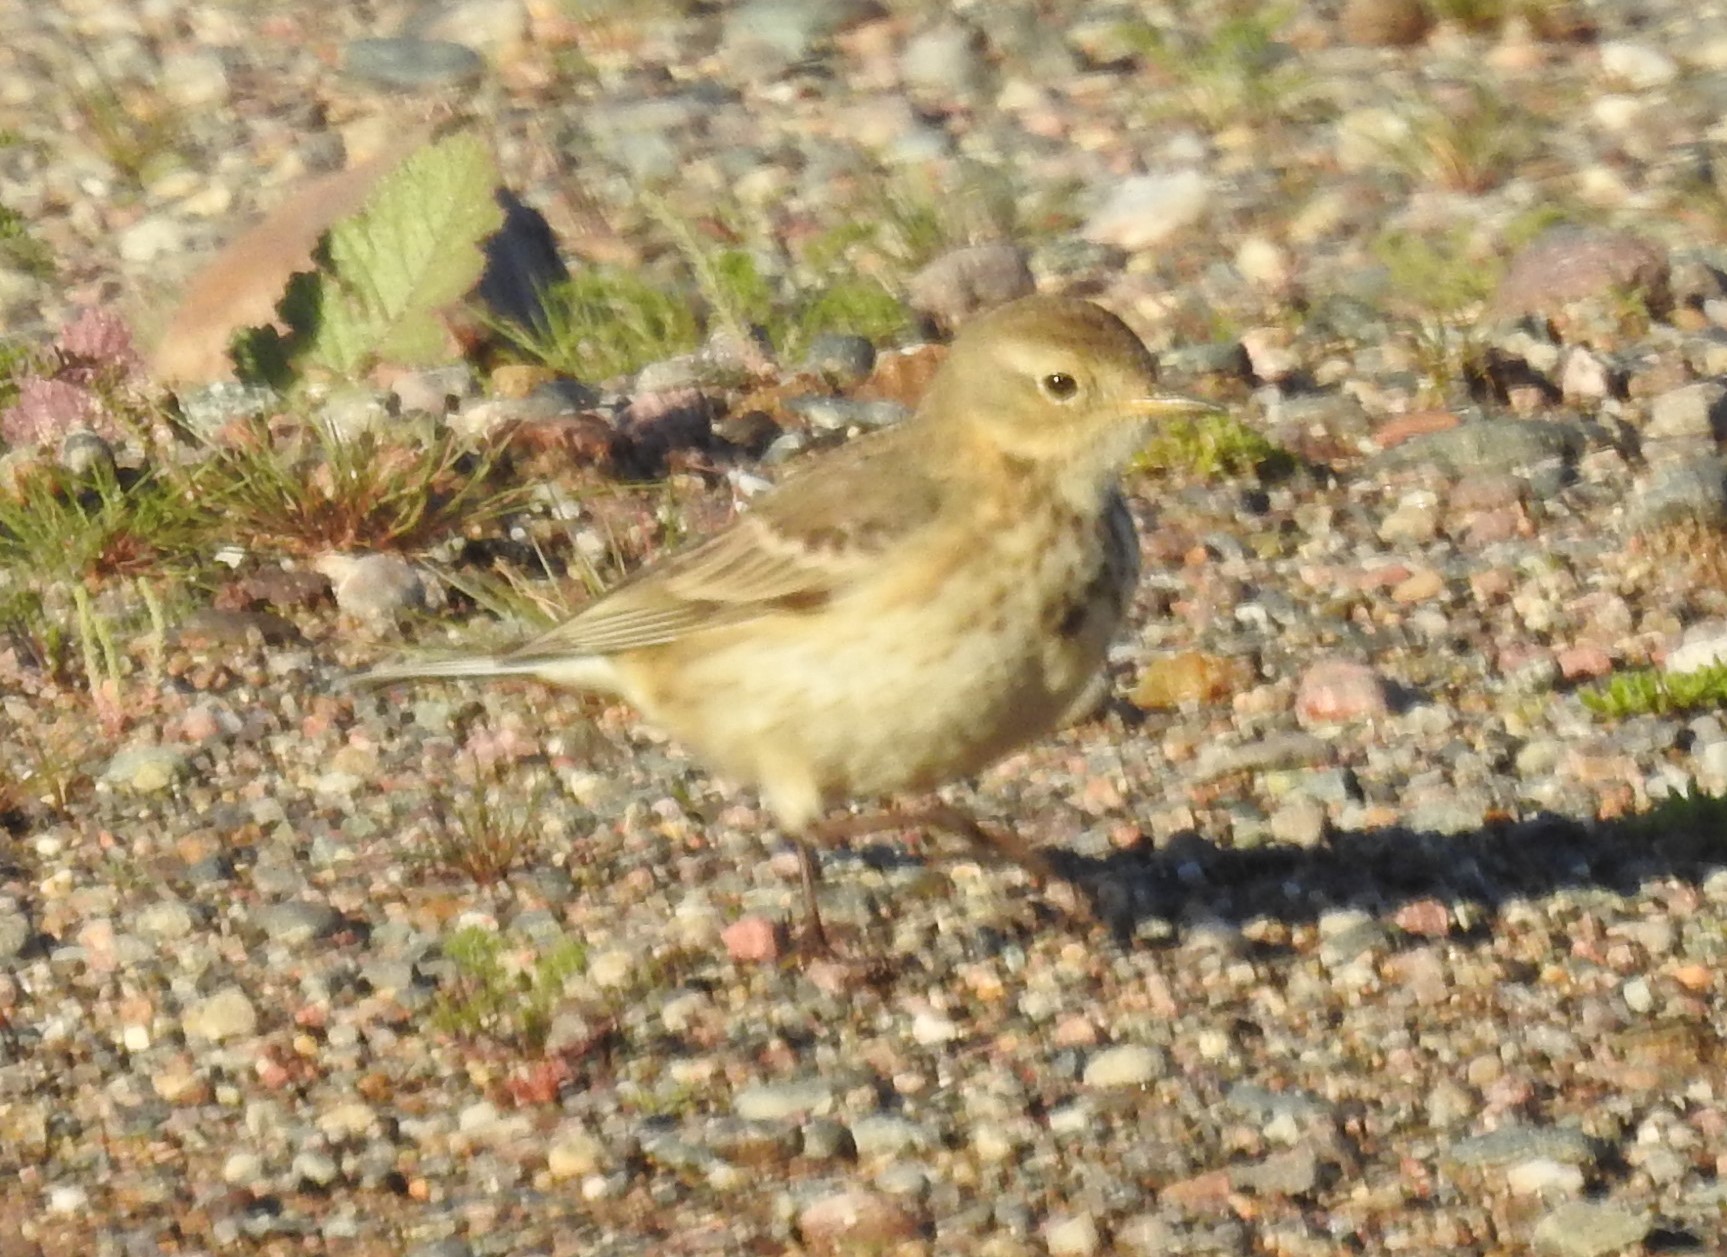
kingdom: Animalia
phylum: Chordata
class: Aves
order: Passeriformes
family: Motacillidae
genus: Anthus
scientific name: Anthus rubescens
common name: Buff-bellied pipit
